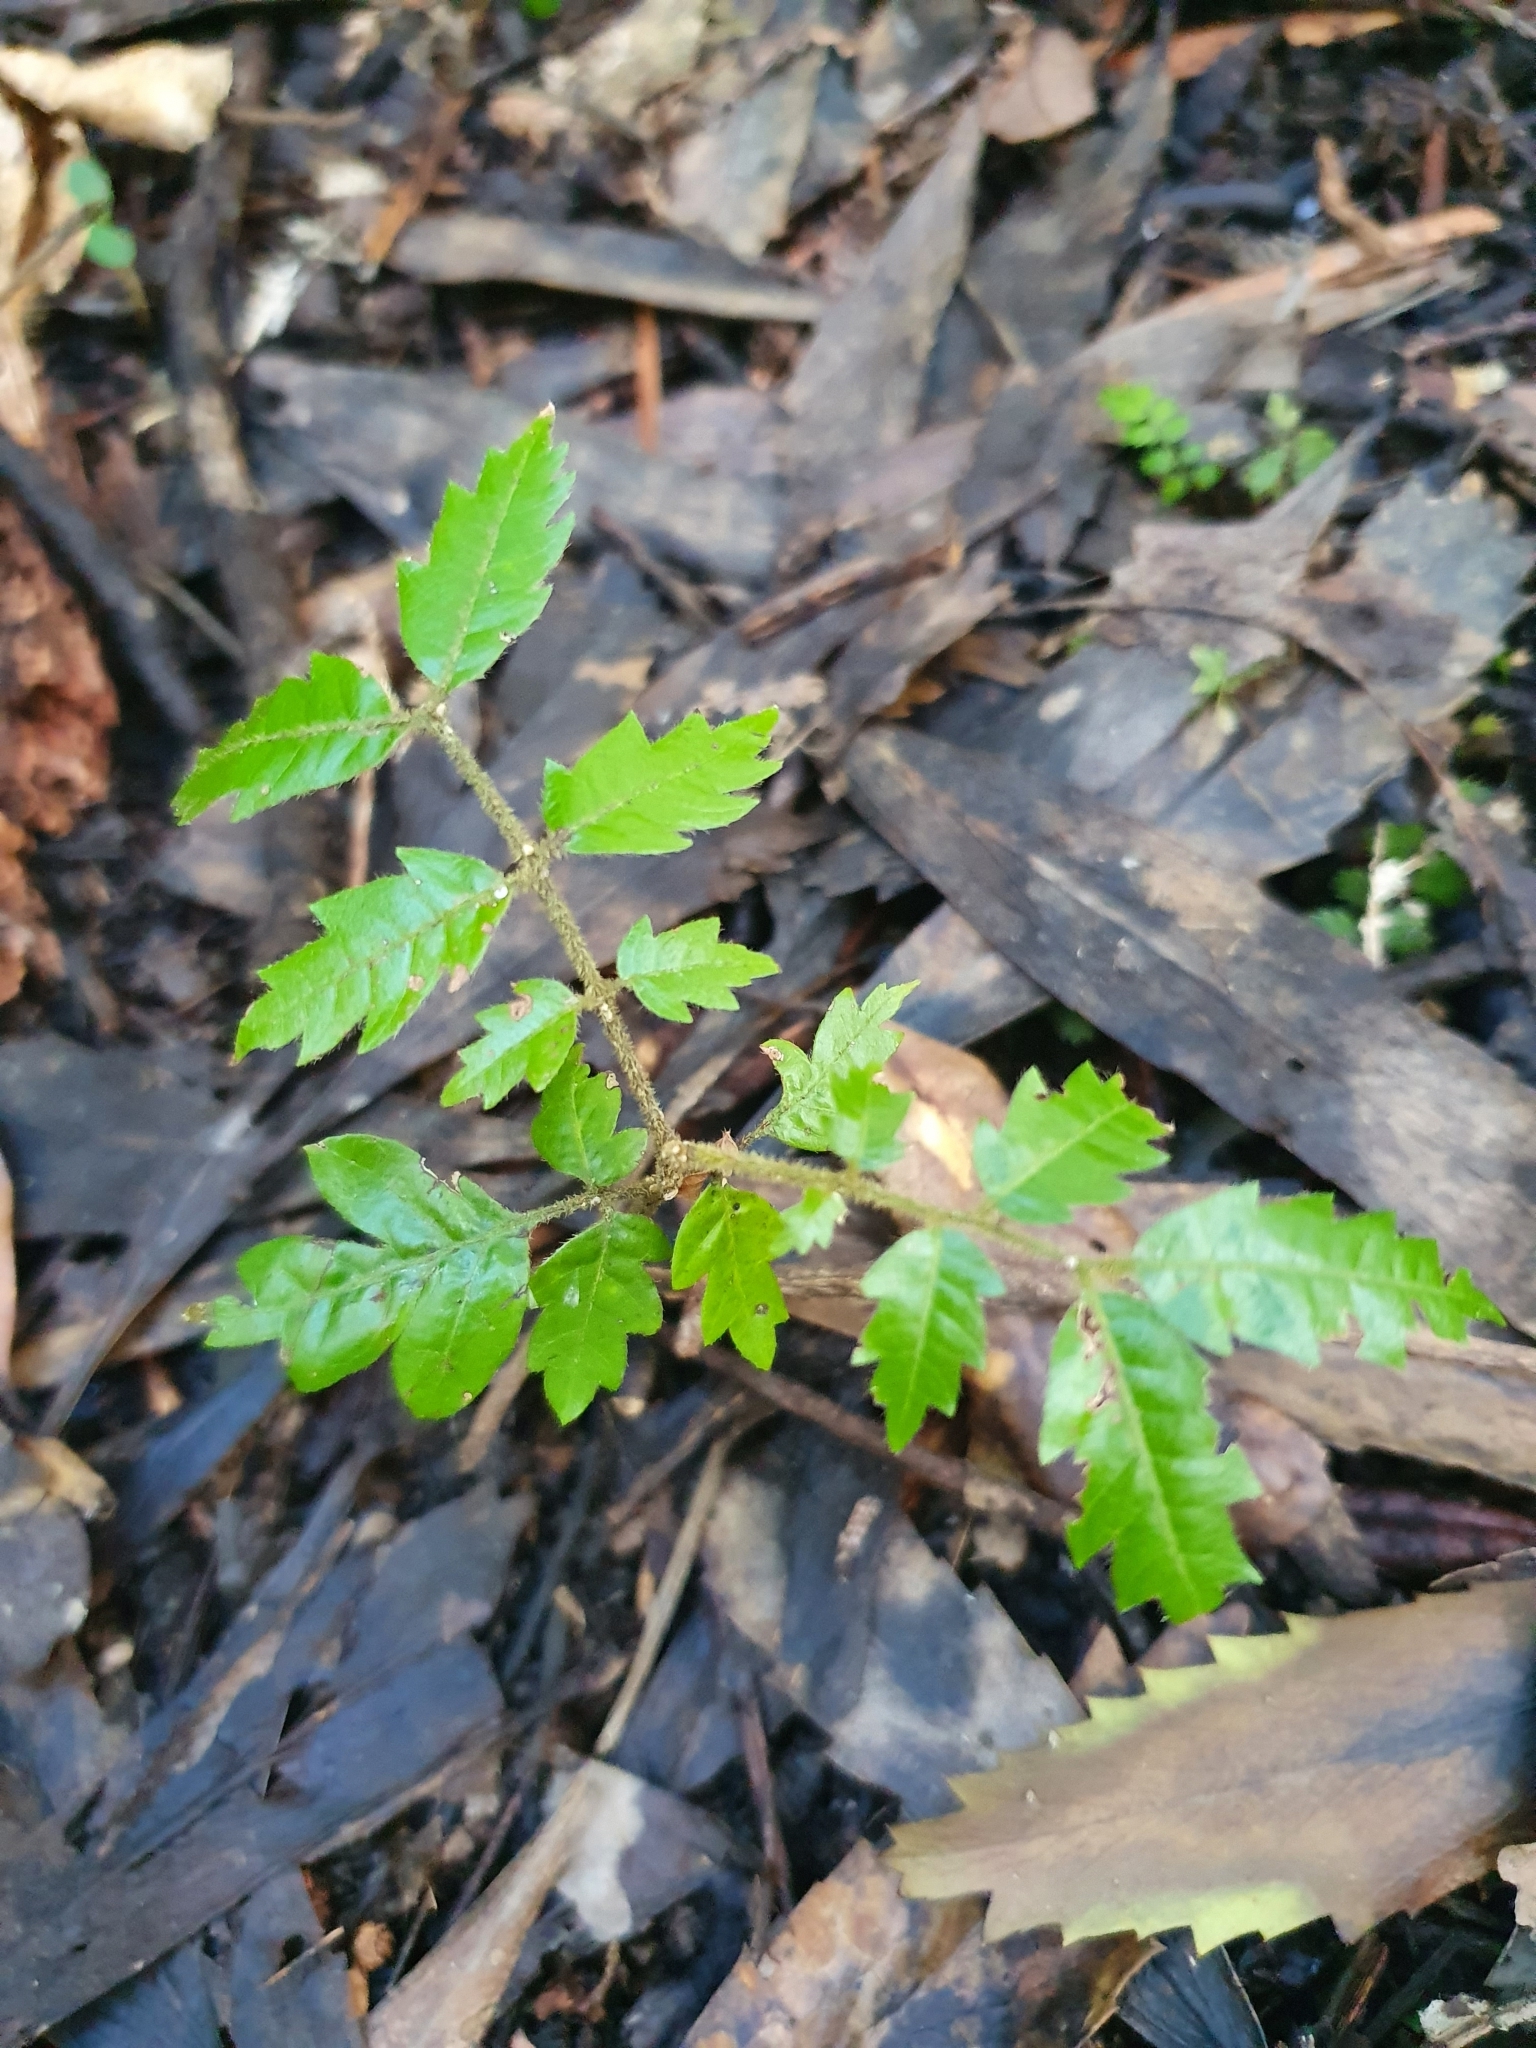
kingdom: Plantae
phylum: Tracheophyta
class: Magnoliopsida
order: Sapindales
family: Sapindaceae
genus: Alectryon
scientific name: Alectryon excelsus
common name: Three kings titoki
